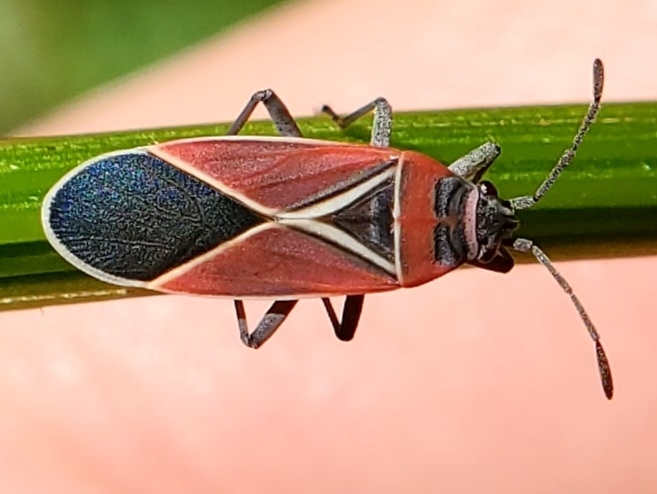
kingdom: Animalia
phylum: Arthropoda
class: Insecta
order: Hemiptera
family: Lygaeidae
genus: Neacoryphus
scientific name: Neacoryphus bicrucis
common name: Lygaeid bug
